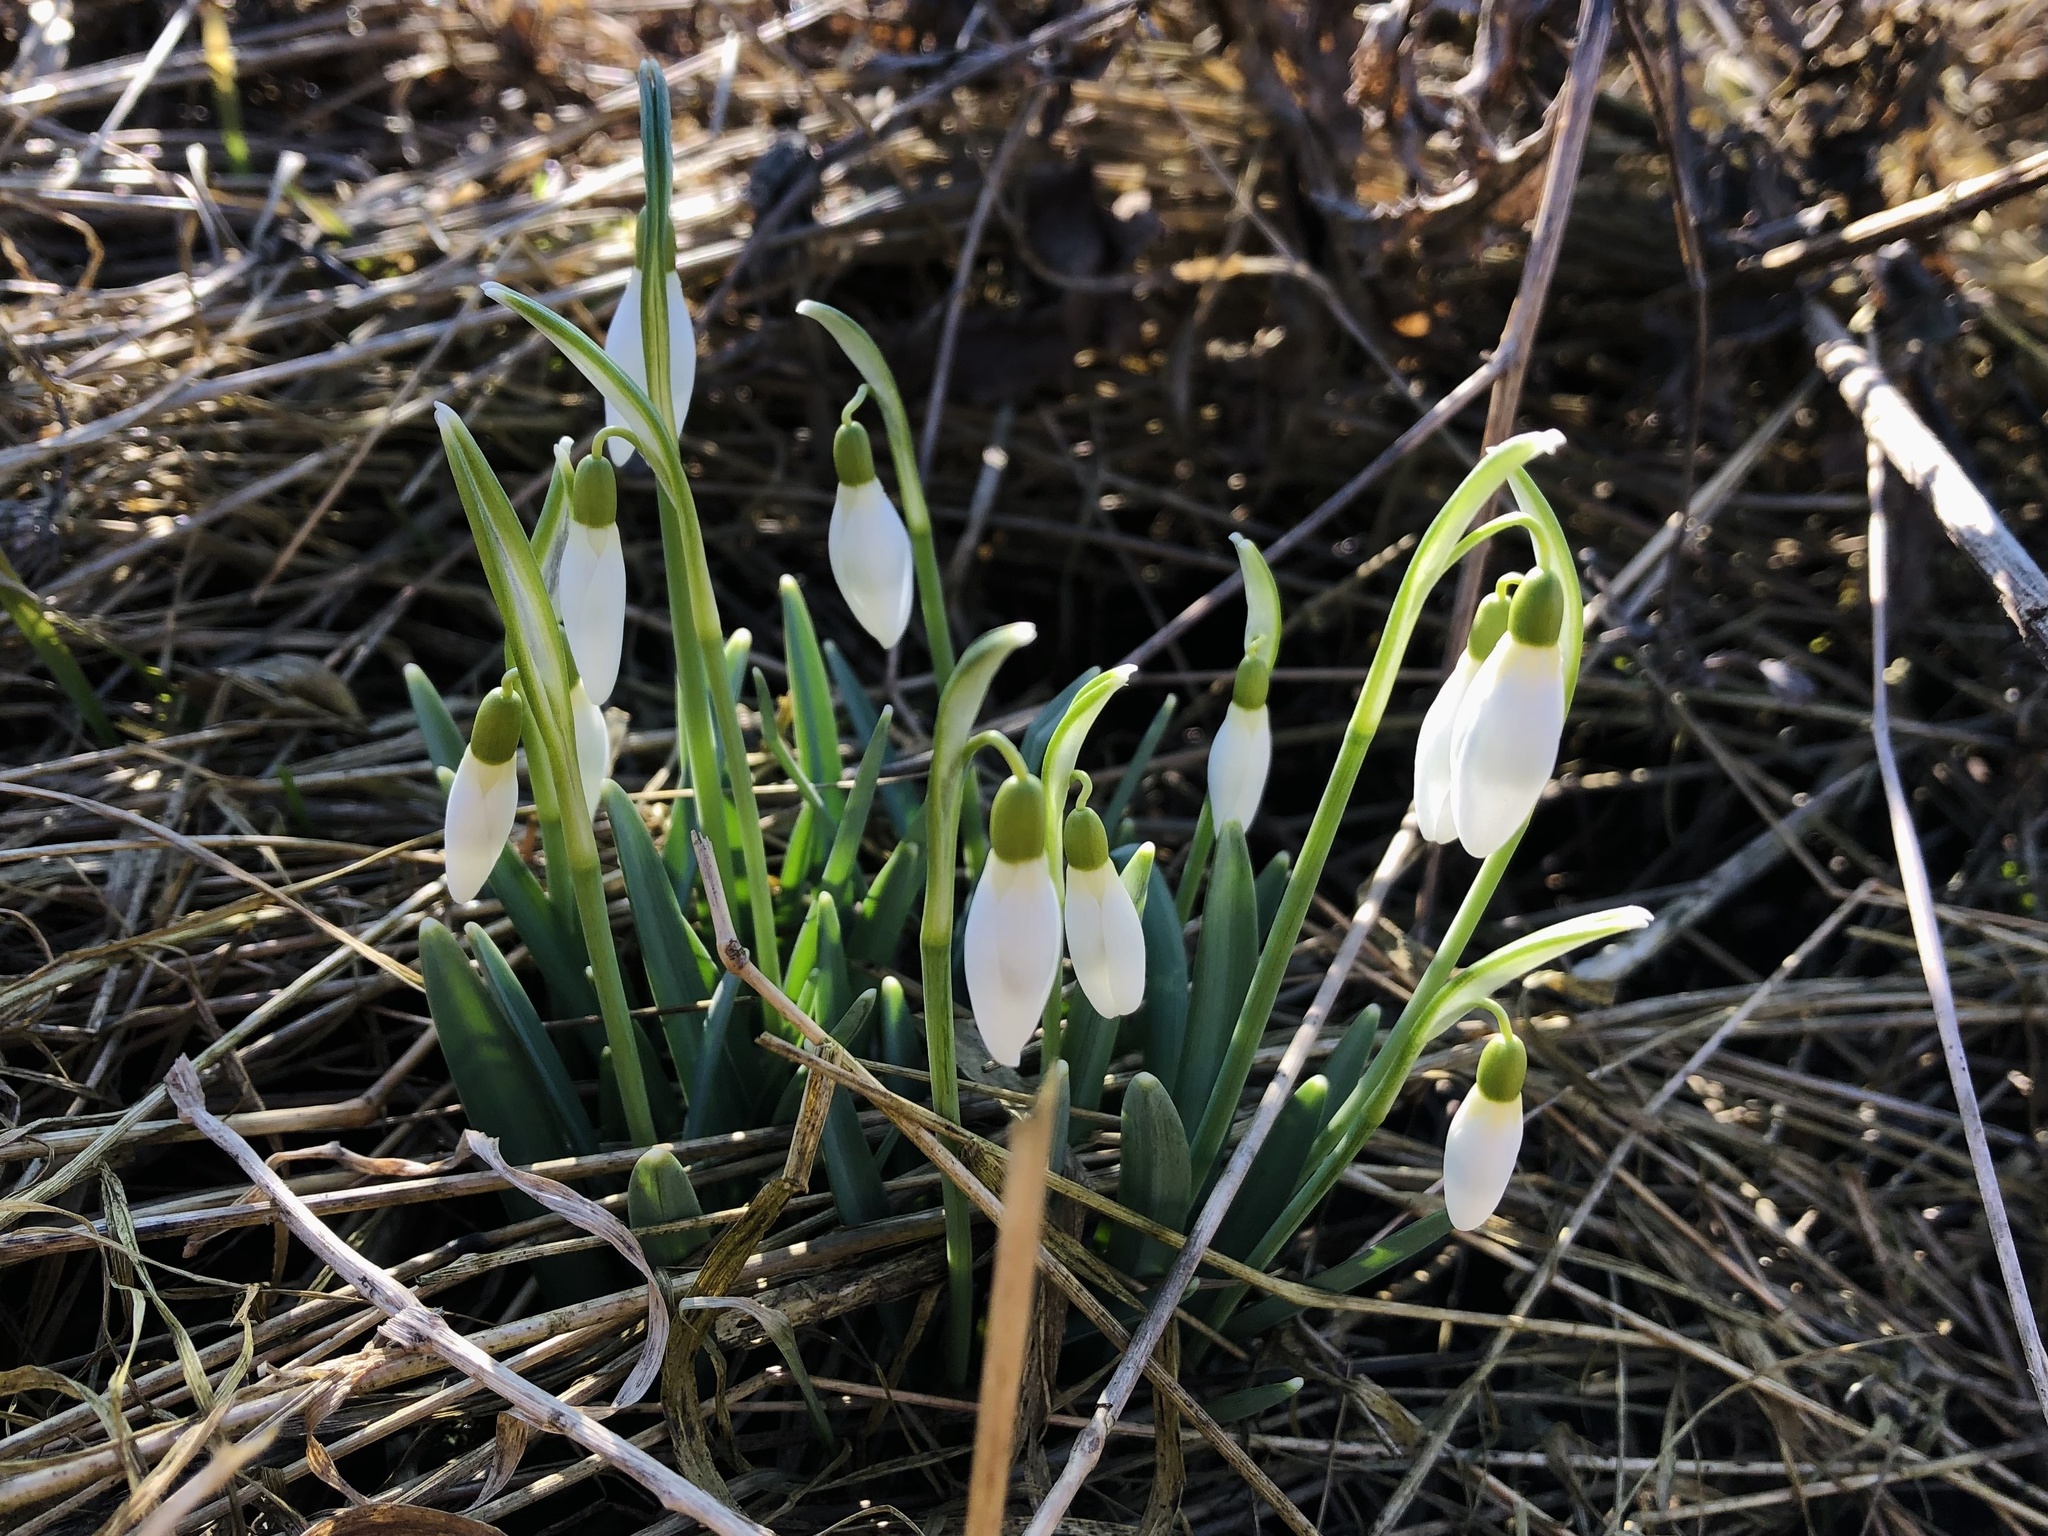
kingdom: Plantae
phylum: Tracheophyta
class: Liliopsida
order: Asparagales
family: Amaryllidaceae
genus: Galanthus
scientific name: Galanthus nivalis
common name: Snowdrop
